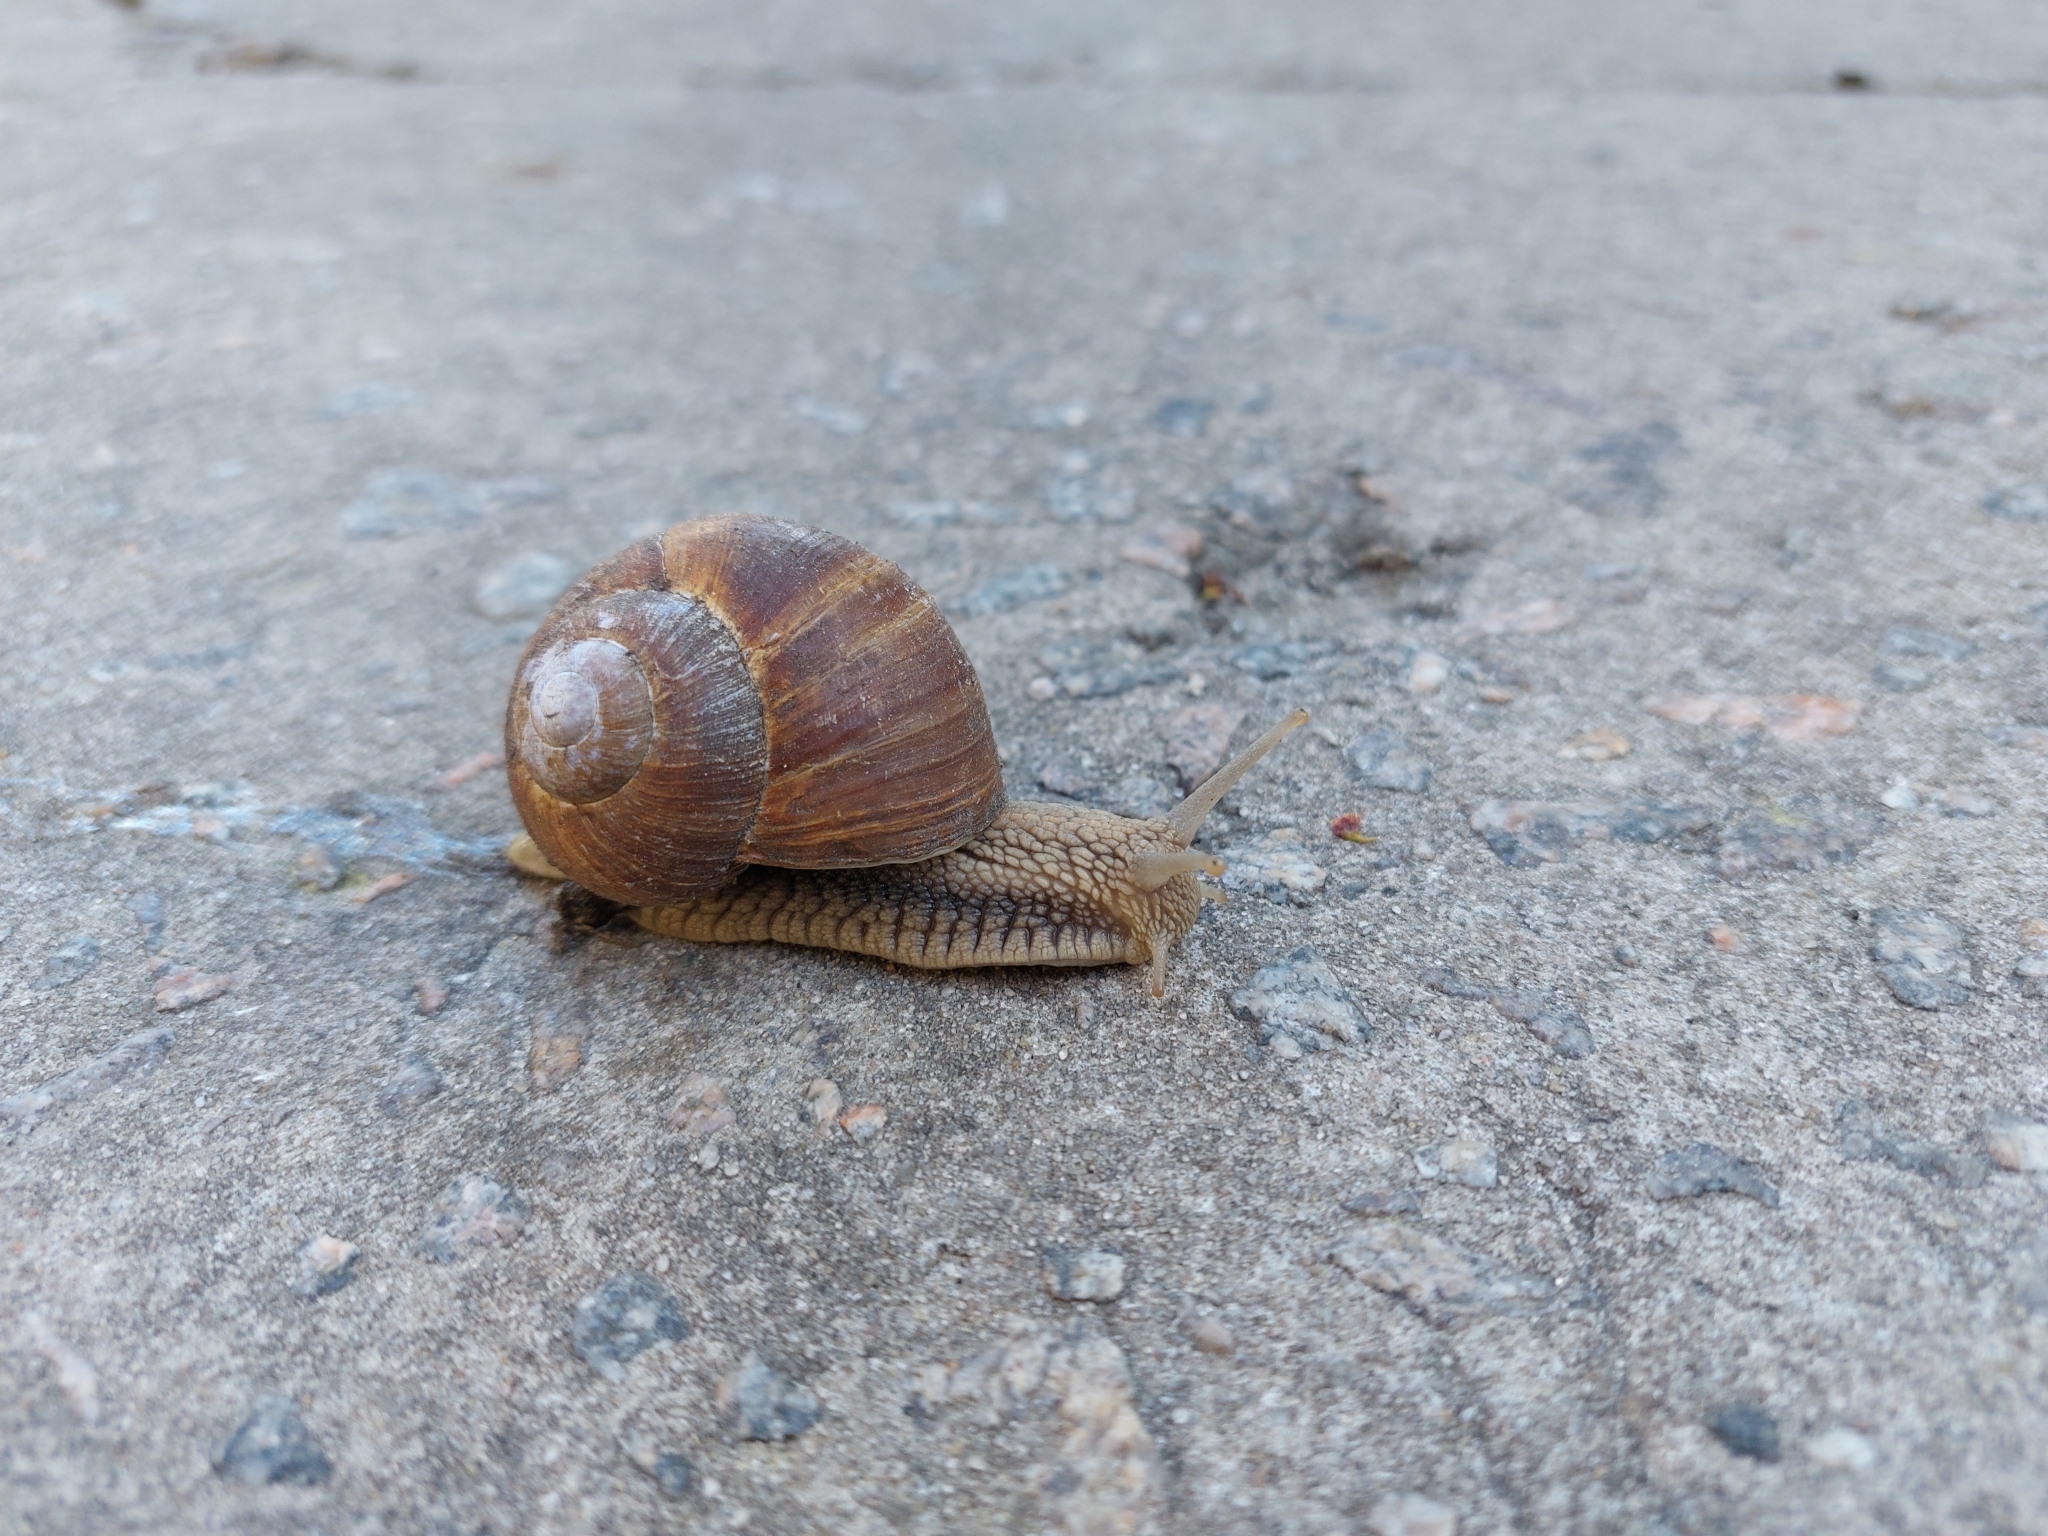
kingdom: Animalia
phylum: Mollusca
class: Gastropoda
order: Stylommatophora
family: Helicidae
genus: Helix
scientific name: Helix pomatia
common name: Roman snail
